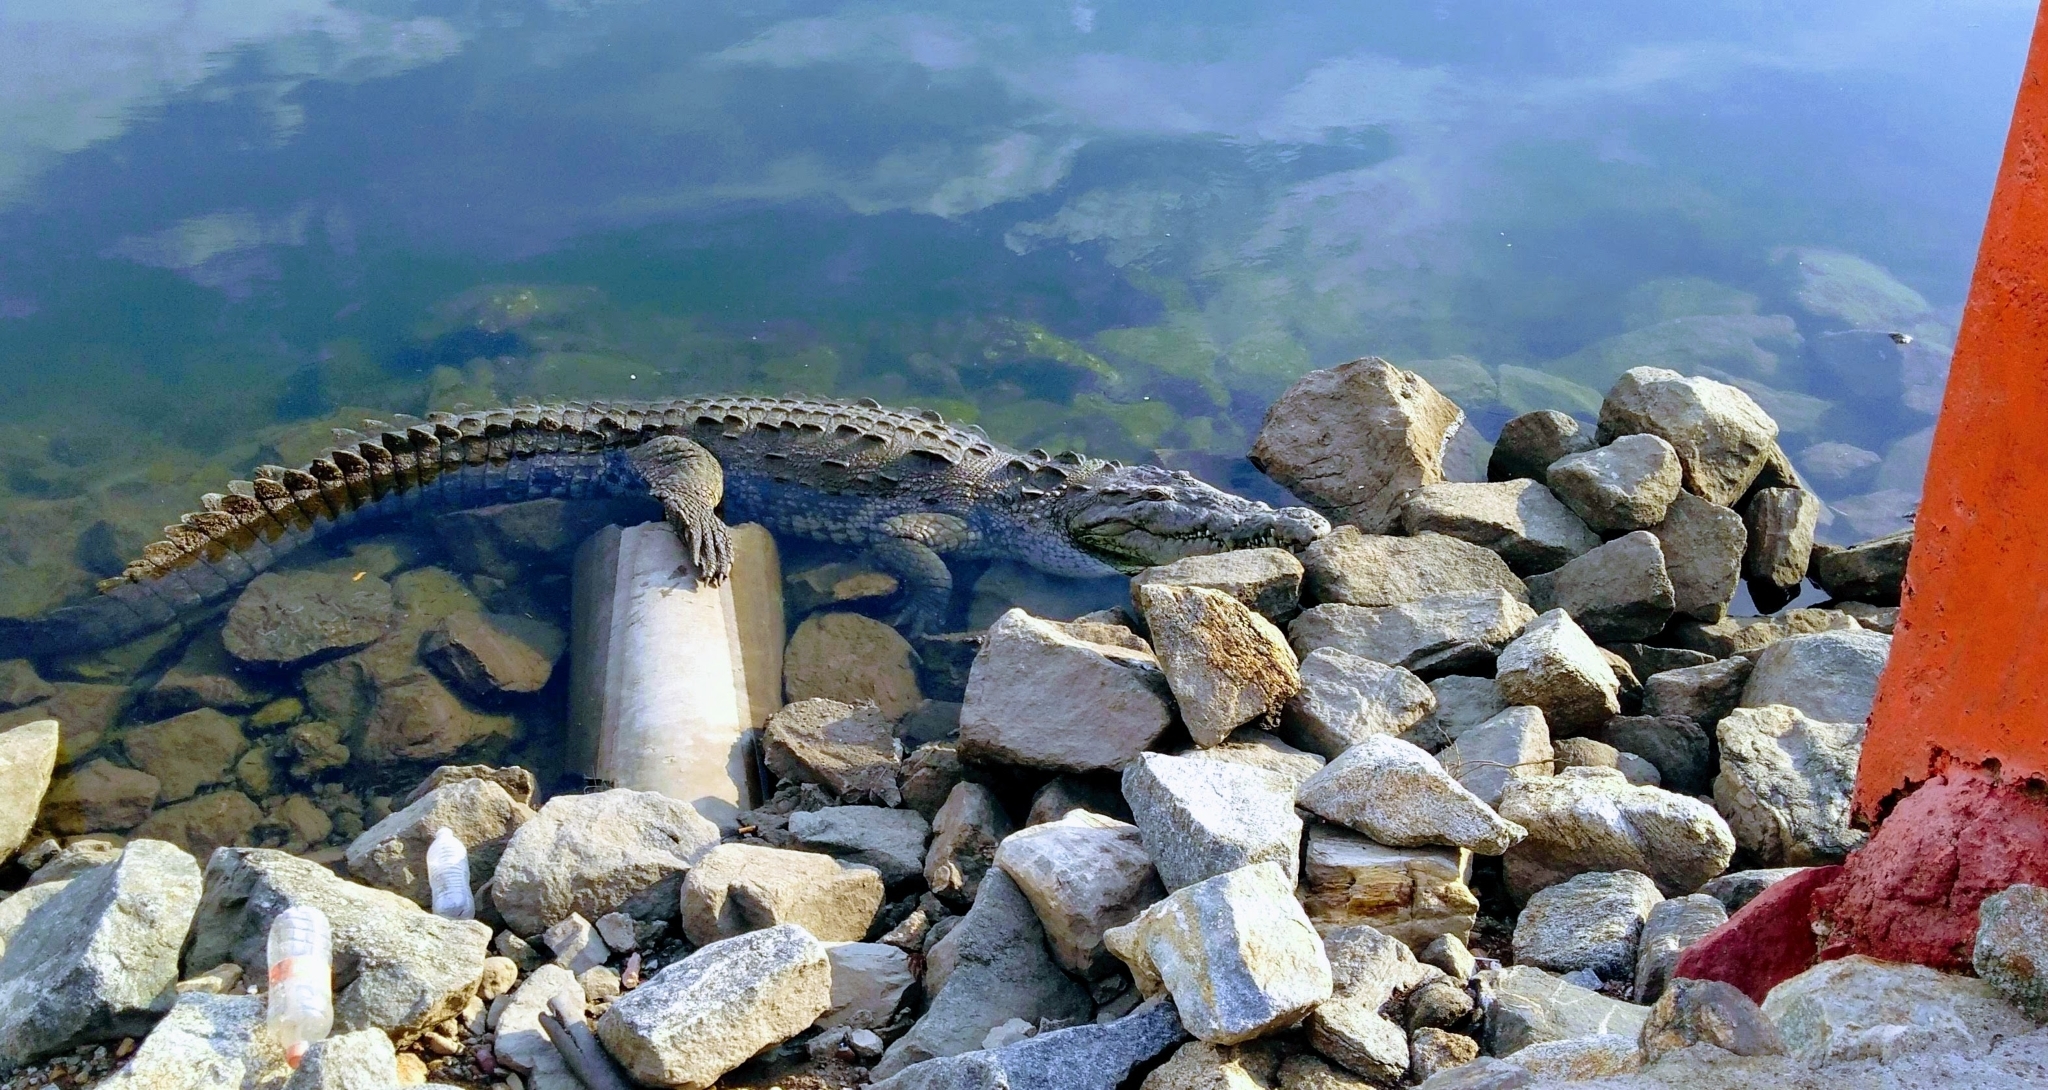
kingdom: Animalia
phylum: Chordata
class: Crocodylia
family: Crocodylidae
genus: Crocodylus
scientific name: Crocodylus acutus
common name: American crocodile
